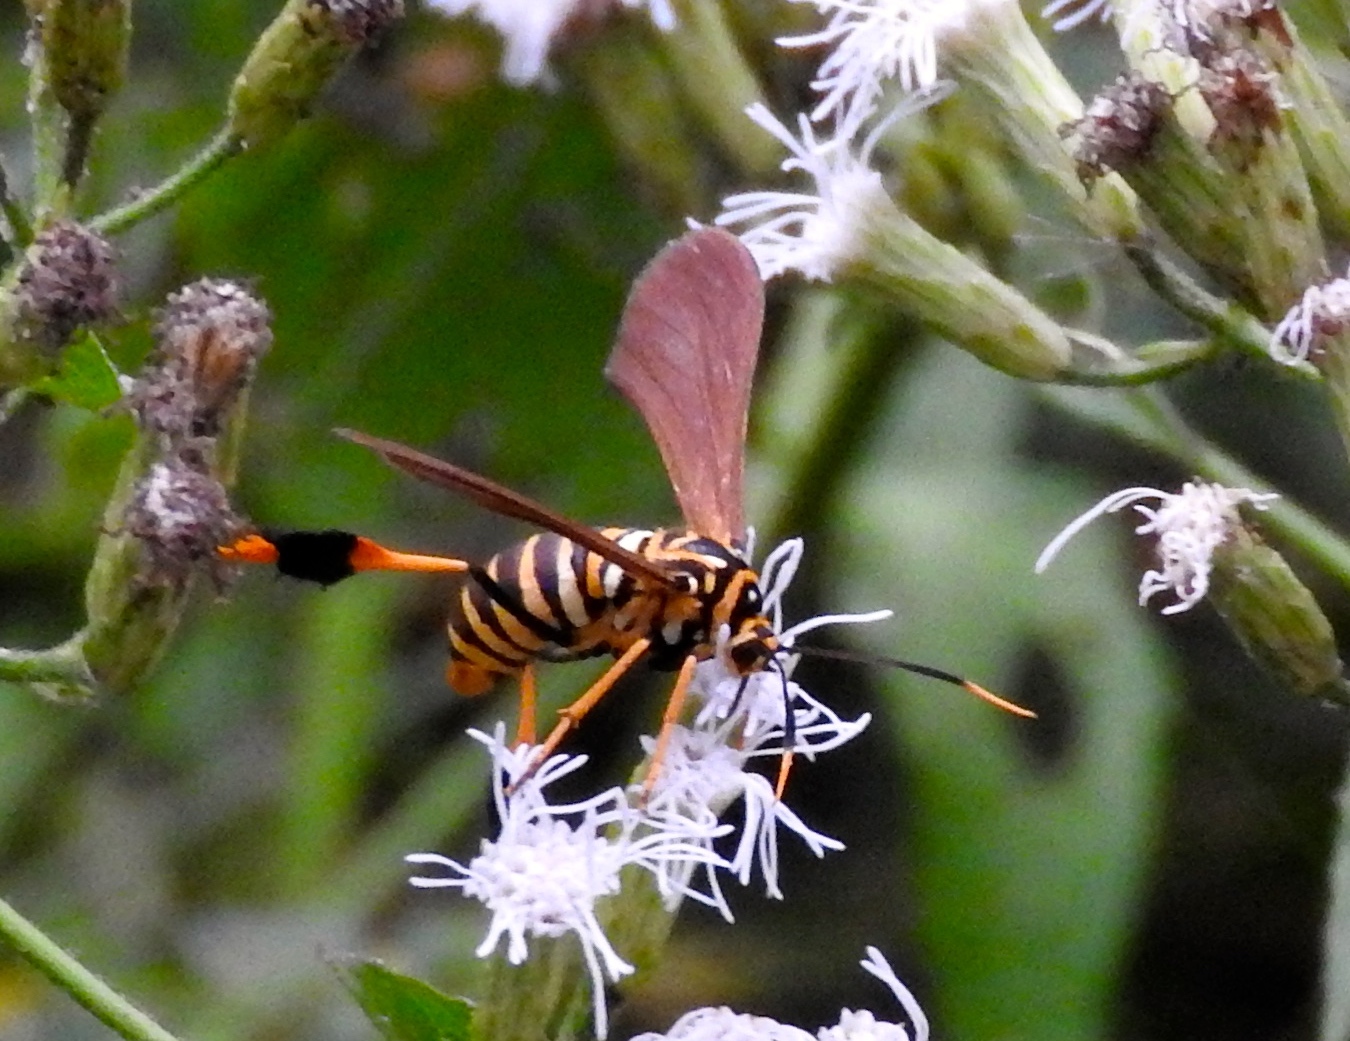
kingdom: Animalia
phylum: Arthropoda
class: Insecta
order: Lepidoptera
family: Erebidae
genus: Horama
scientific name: Horama
